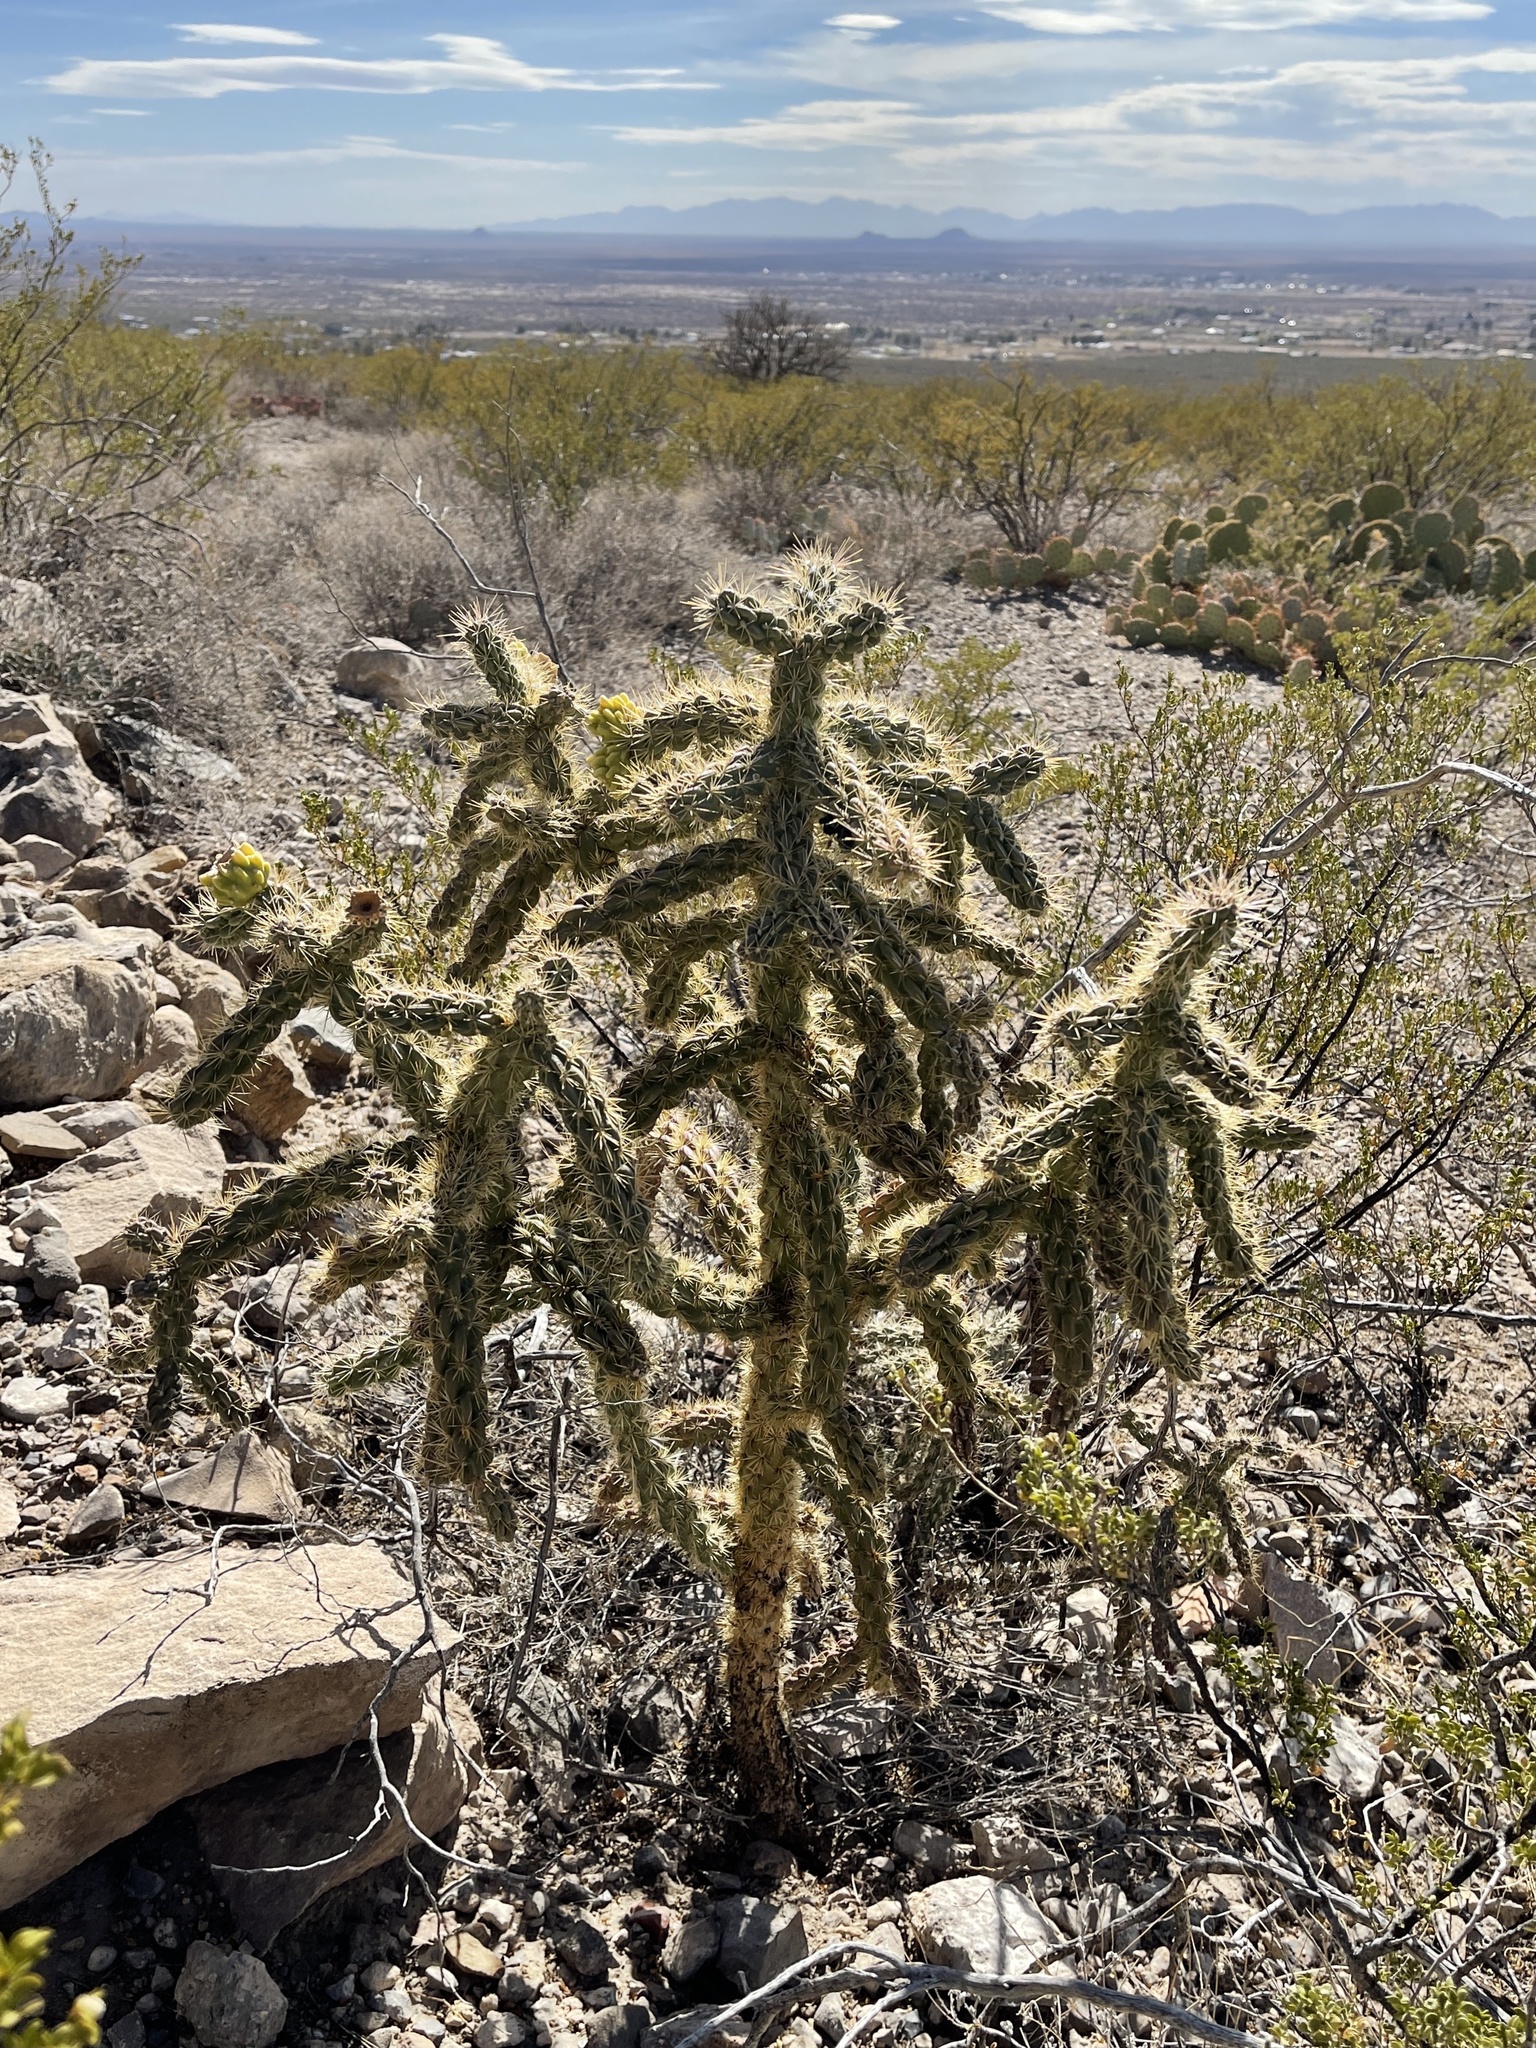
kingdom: Plantae
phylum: Tracheophyta
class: Magnoliopsida
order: Caryophyllales
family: Cactaceae
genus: Cylindropuntia
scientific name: Cylindropuntia imbricata
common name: Candelabrum cactus
